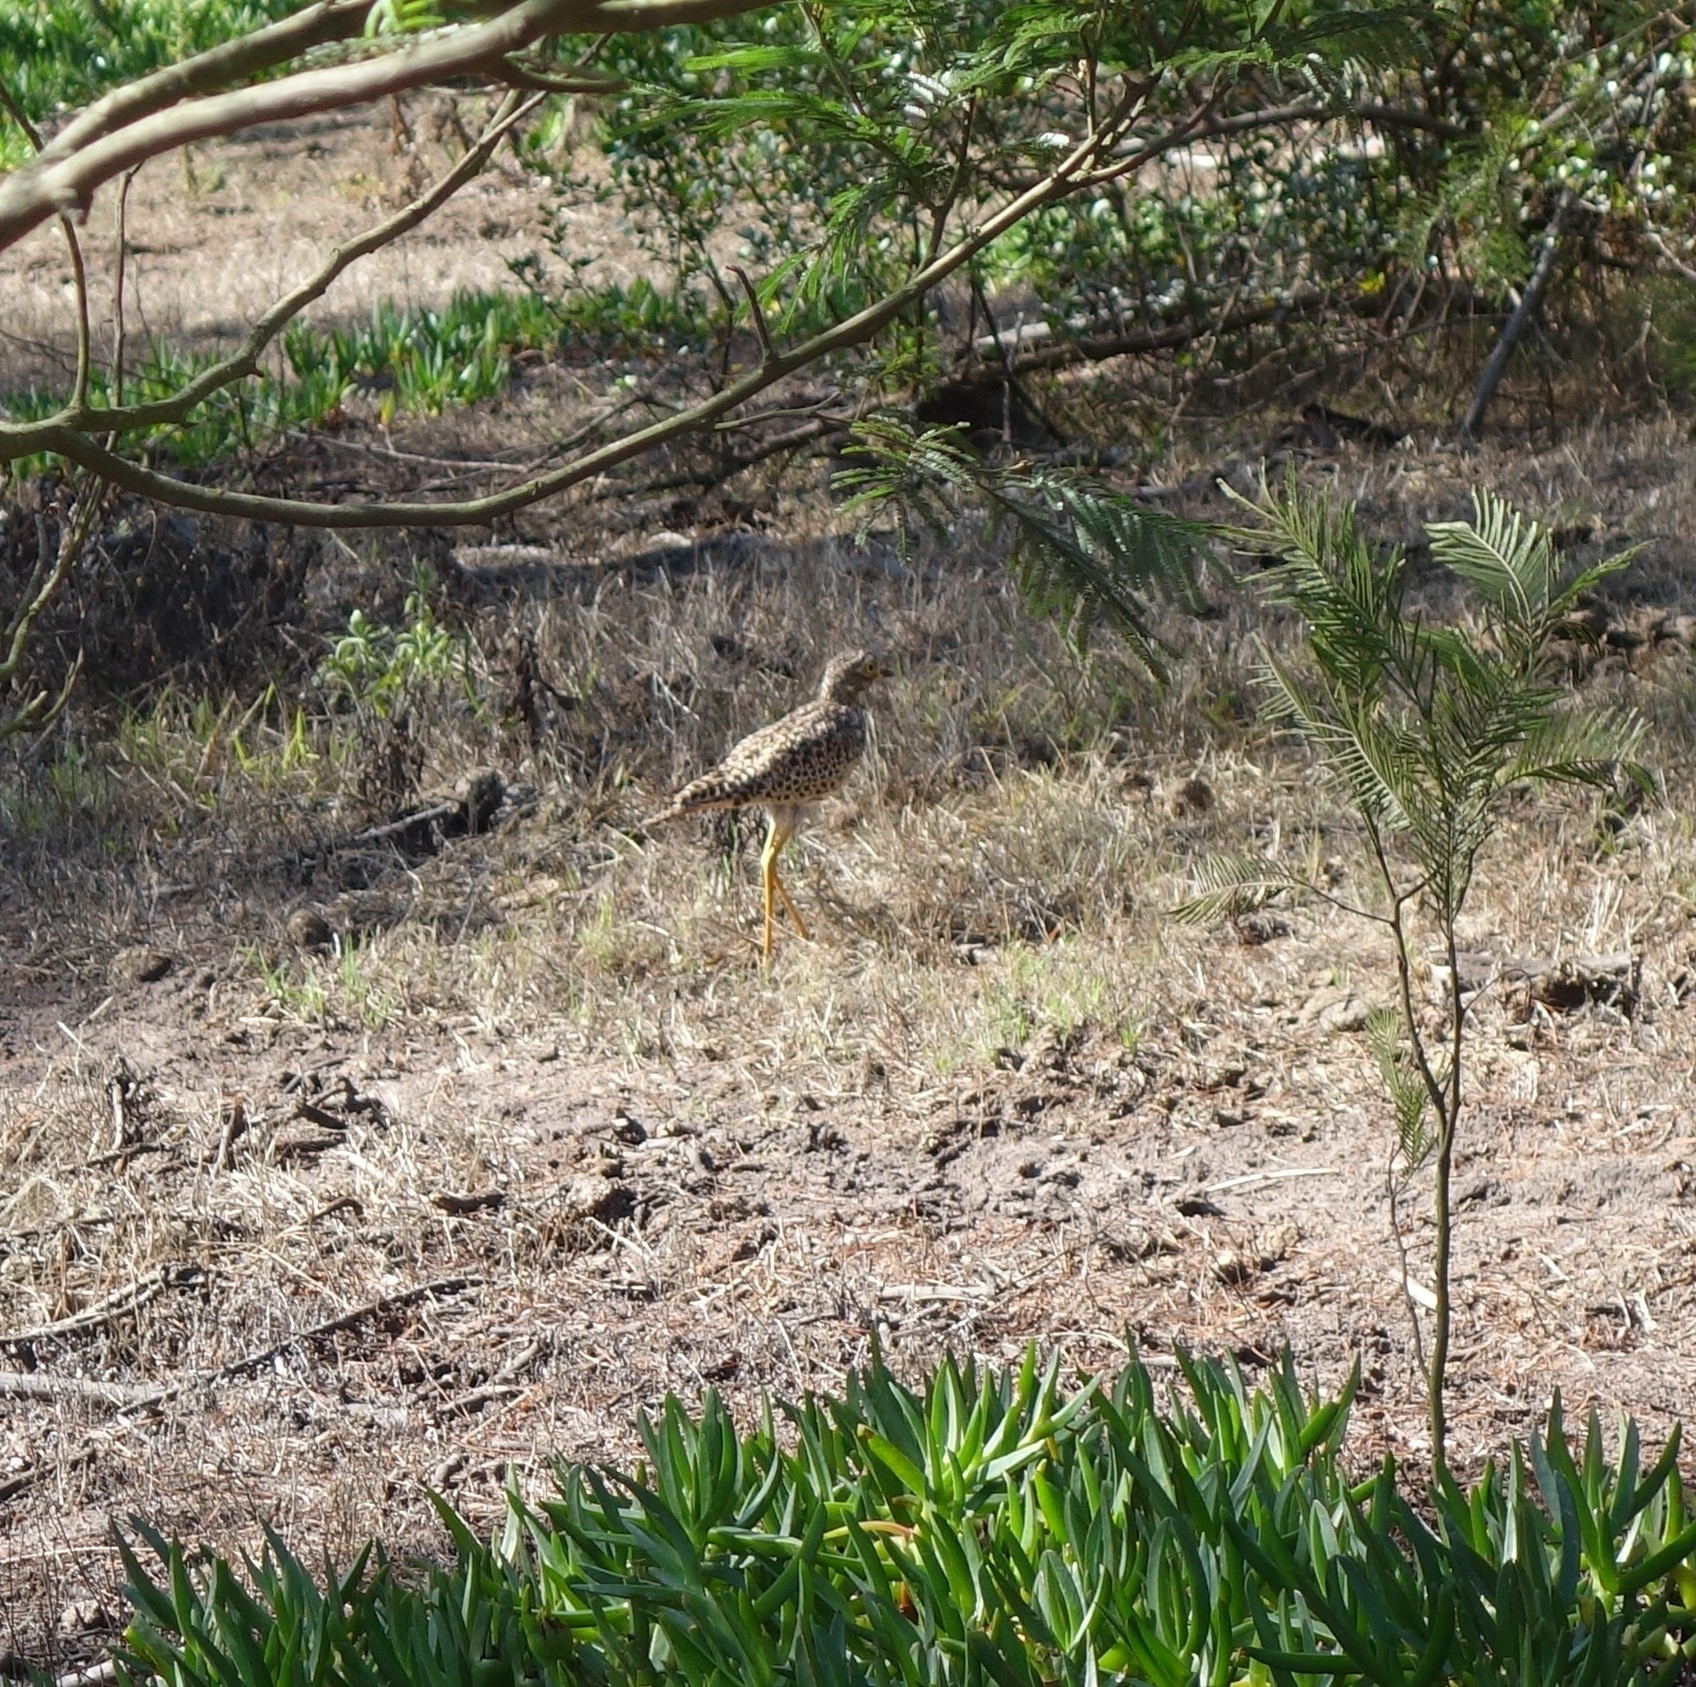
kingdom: Animalia
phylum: Chordata
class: Aves
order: Charadriiformes
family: Burhinidae
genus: Burhinus
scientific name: Burhinus capensis
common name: Spotted thick-knee
